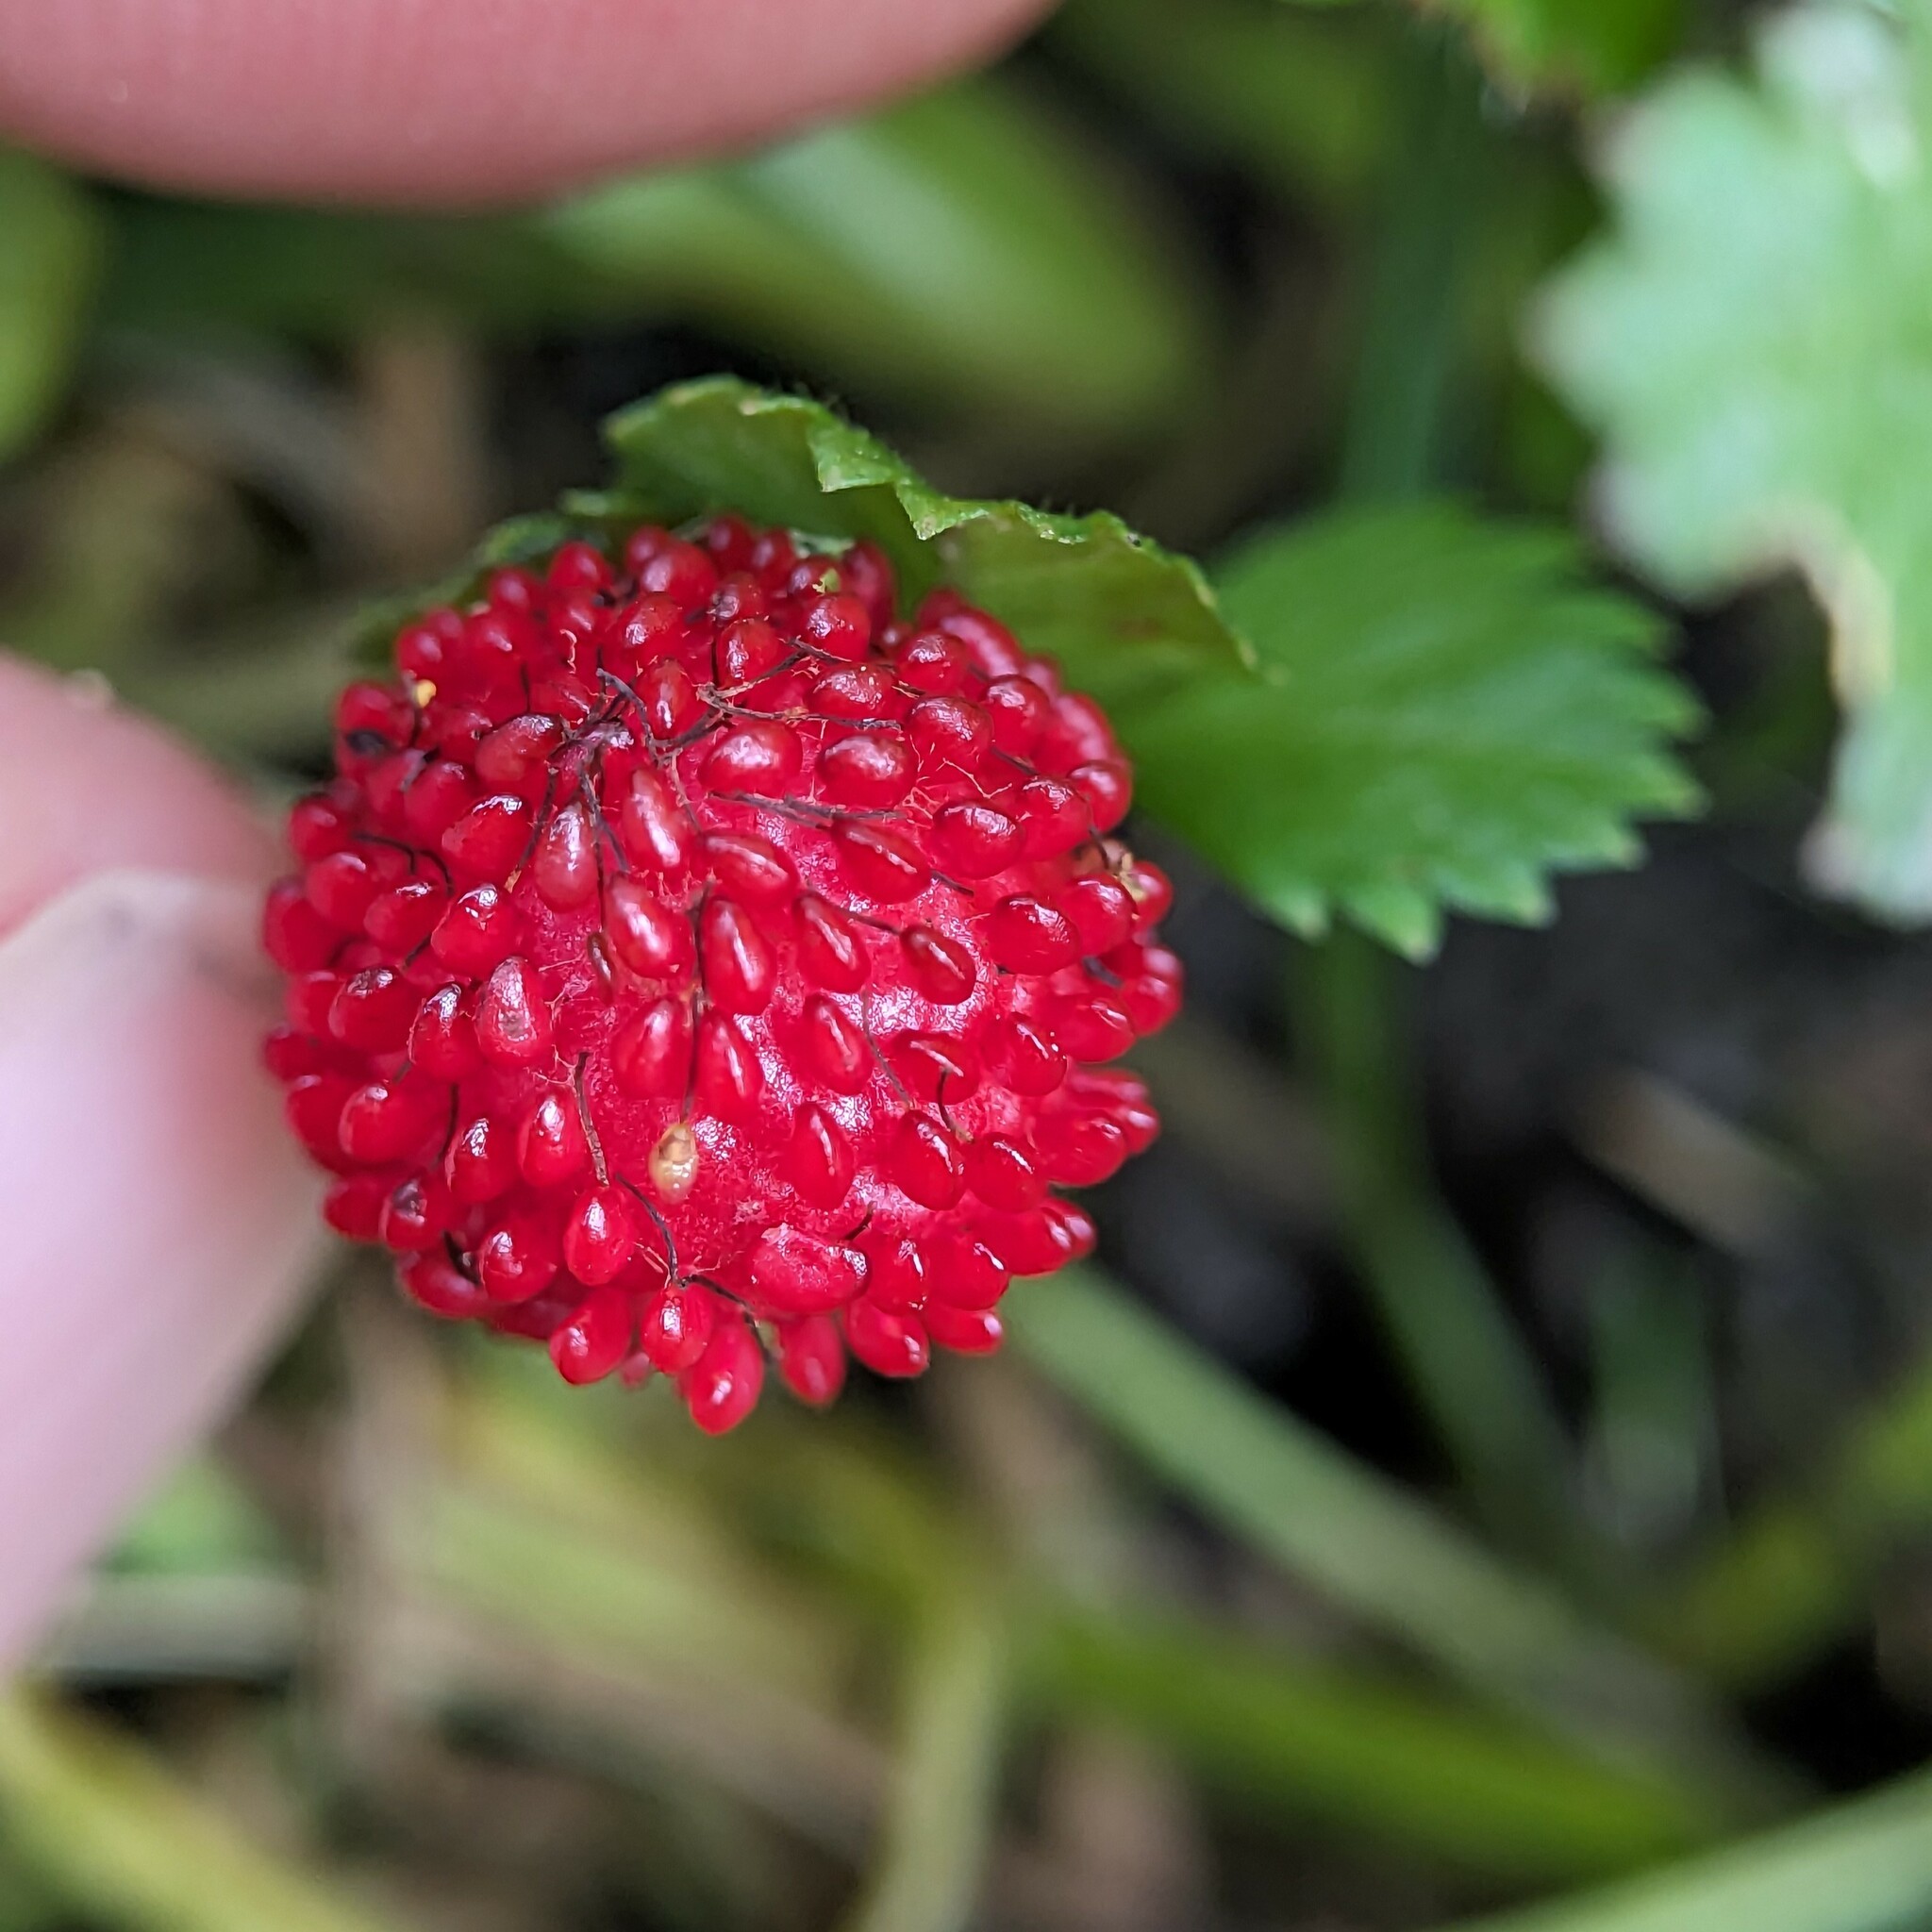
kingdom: Plantae
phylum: Tracheophyta
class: Magnoliopsida
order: Rosales
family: Rosaceae
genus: Potentilla
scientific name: Potentilla indica
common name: Yellow-flowered strawberry
